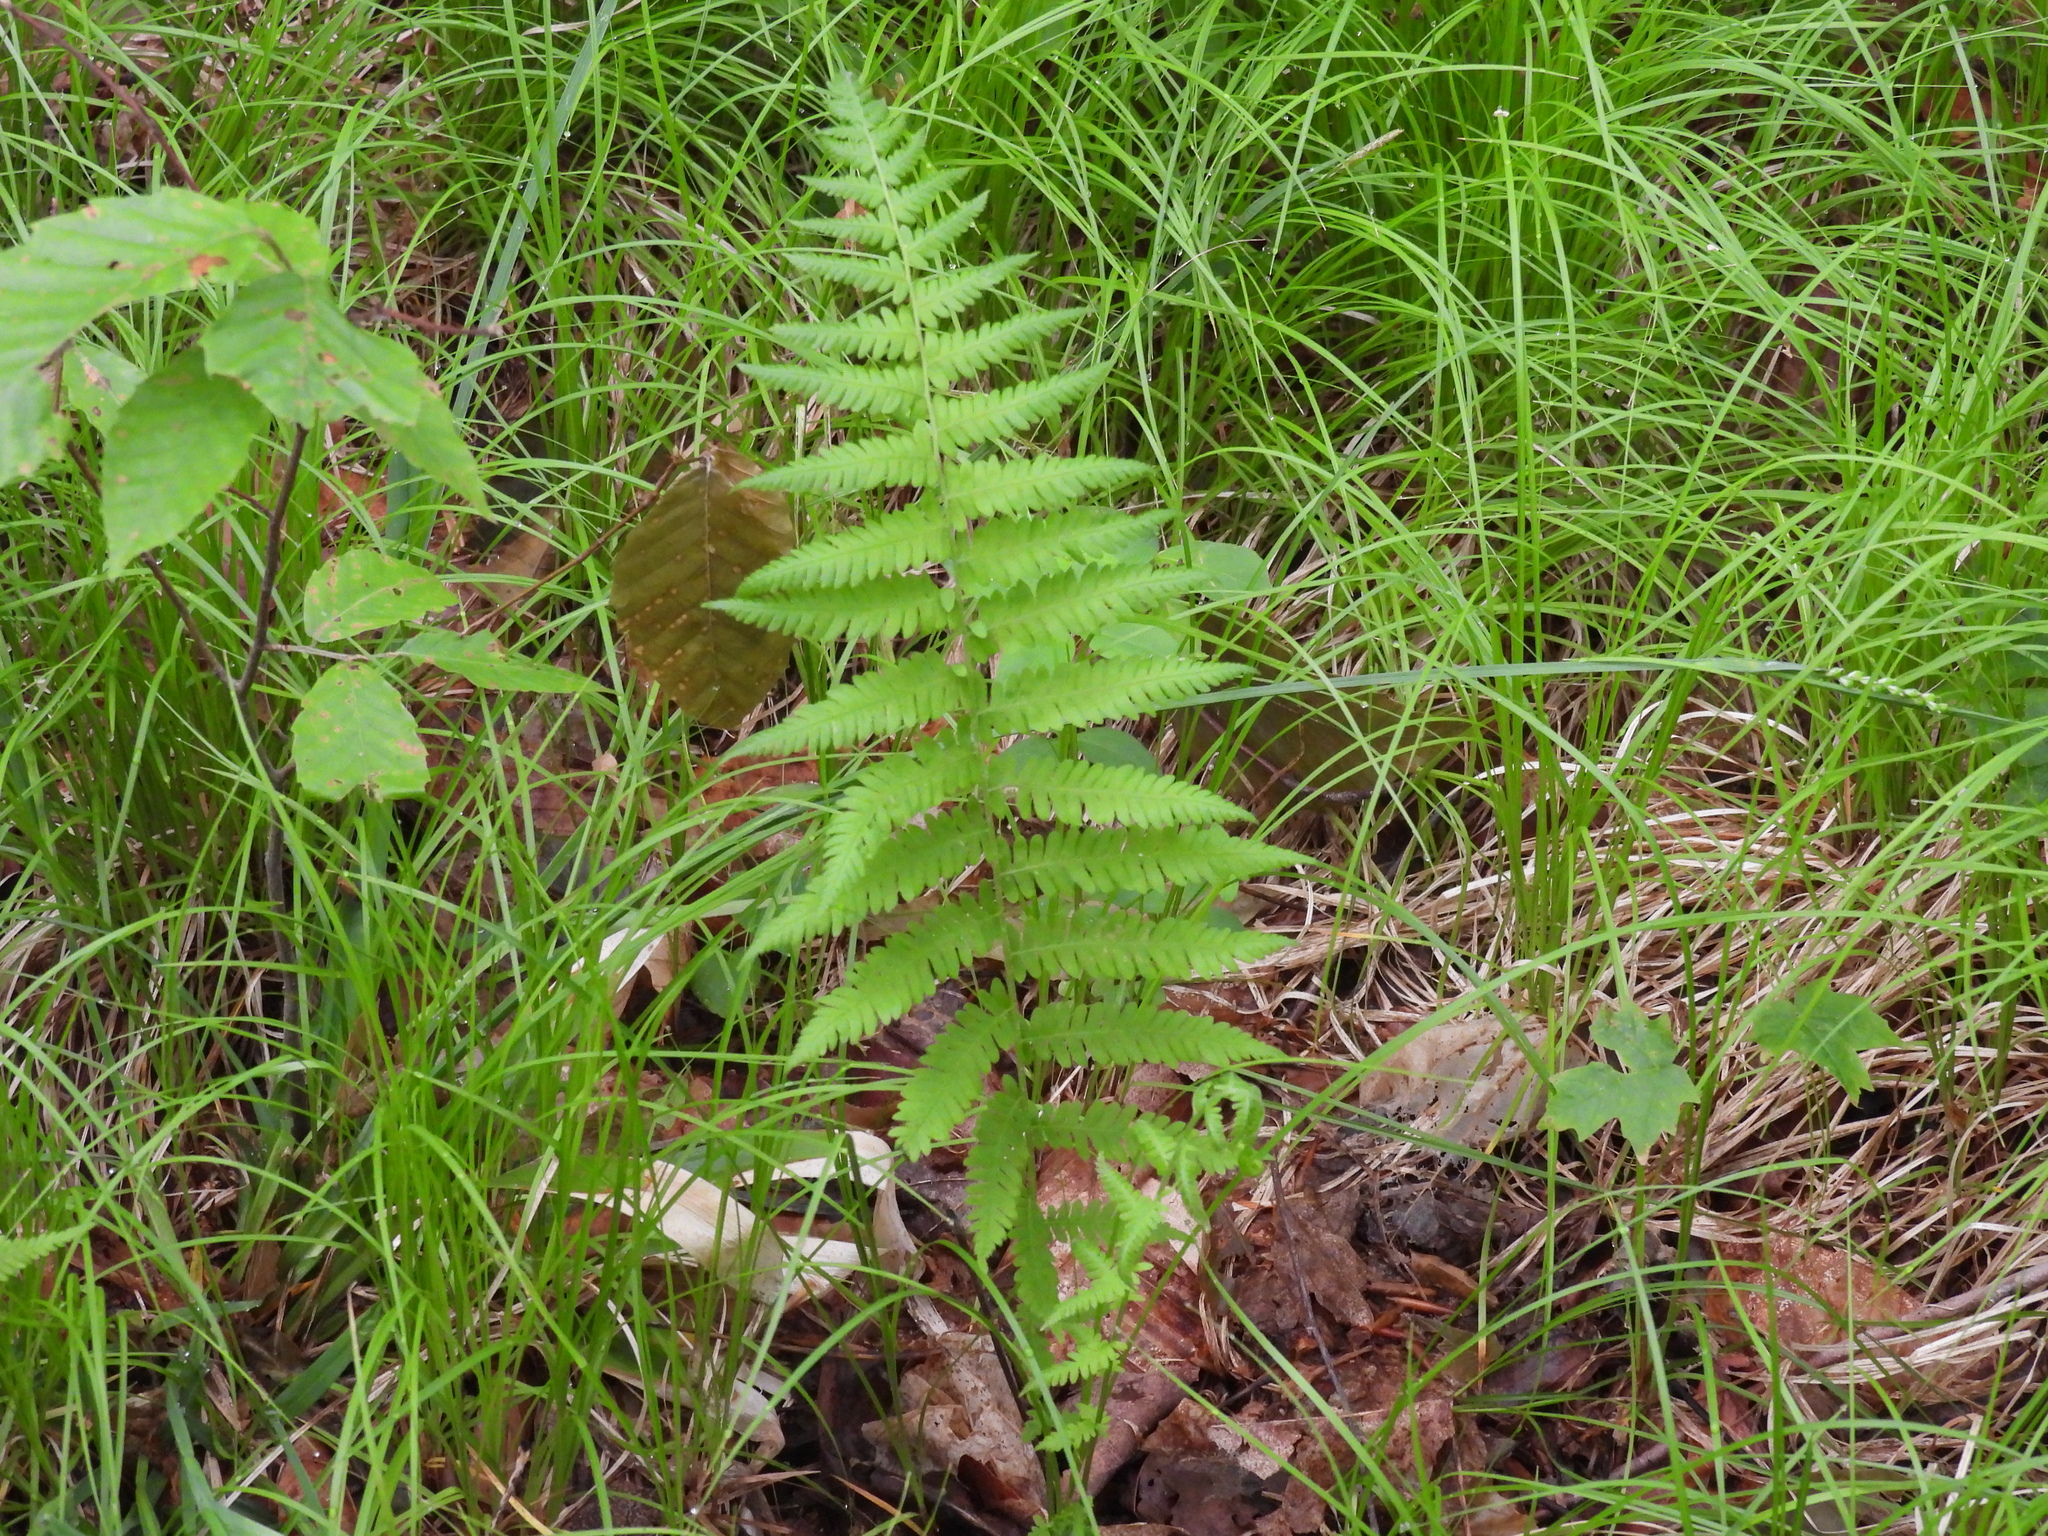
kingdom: Plantae
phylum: Tracheophyta
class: Polypodiopsida
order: Polypodiales
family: Thelypteridaceae
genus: Amauropelta
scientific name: Amauropelta noveboracensis
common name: New york fern
